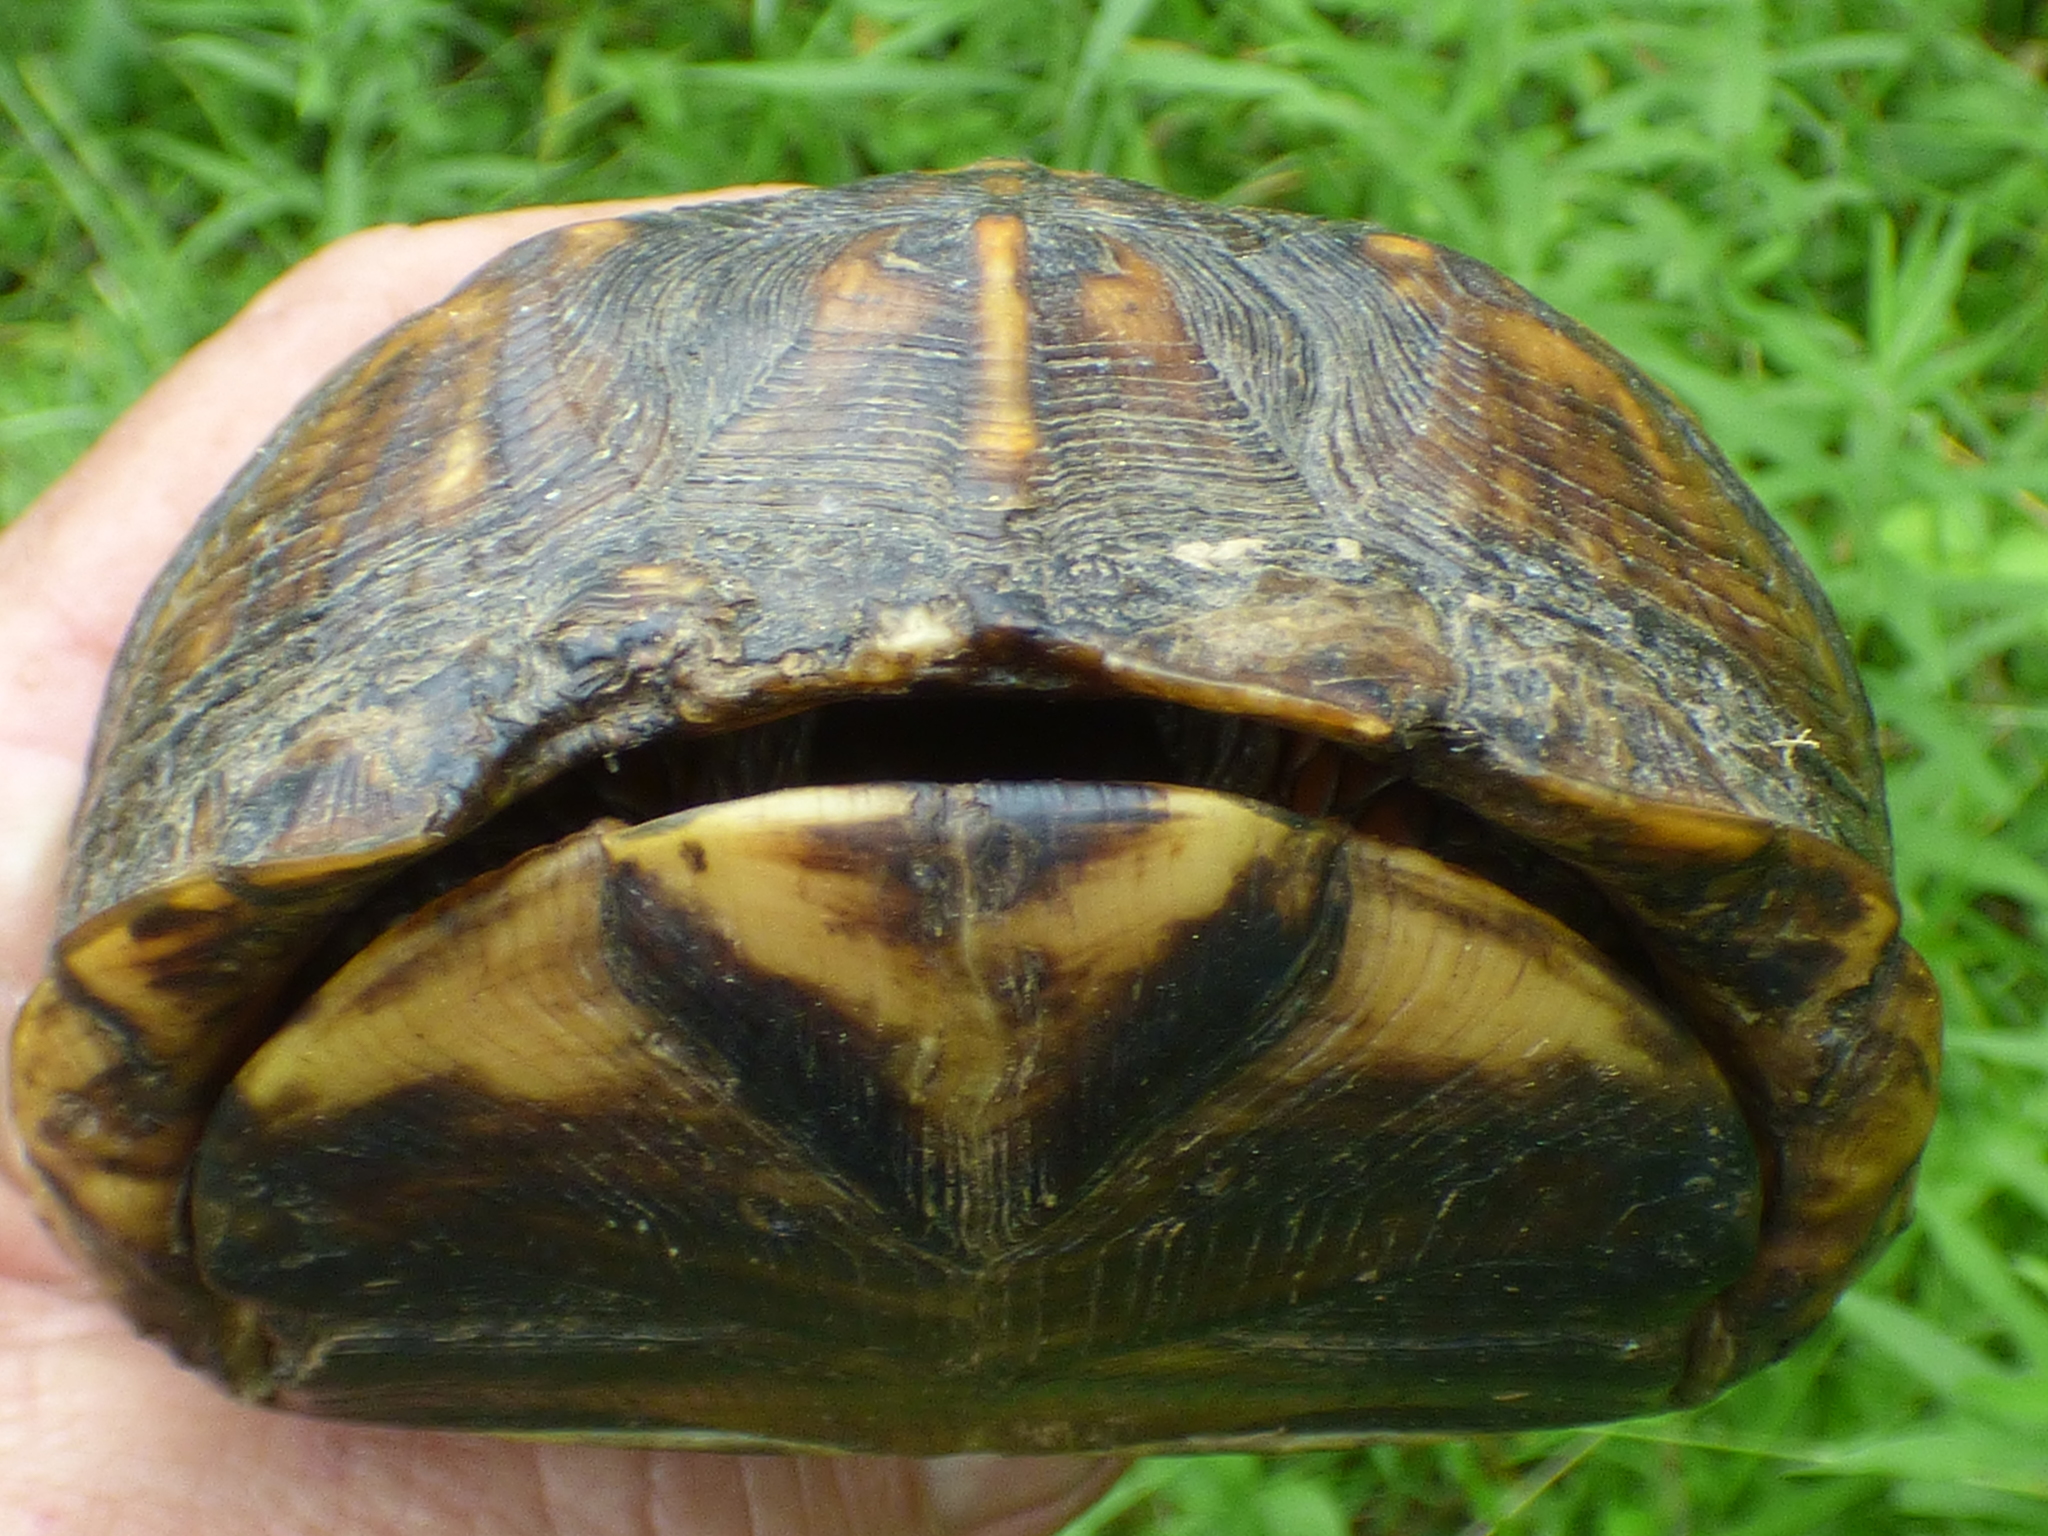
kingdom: Animalia
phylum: Chordata
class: Testudines
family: Emydidae
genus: Terrapene
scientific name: Terrapene carolina
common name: Common box turtle
